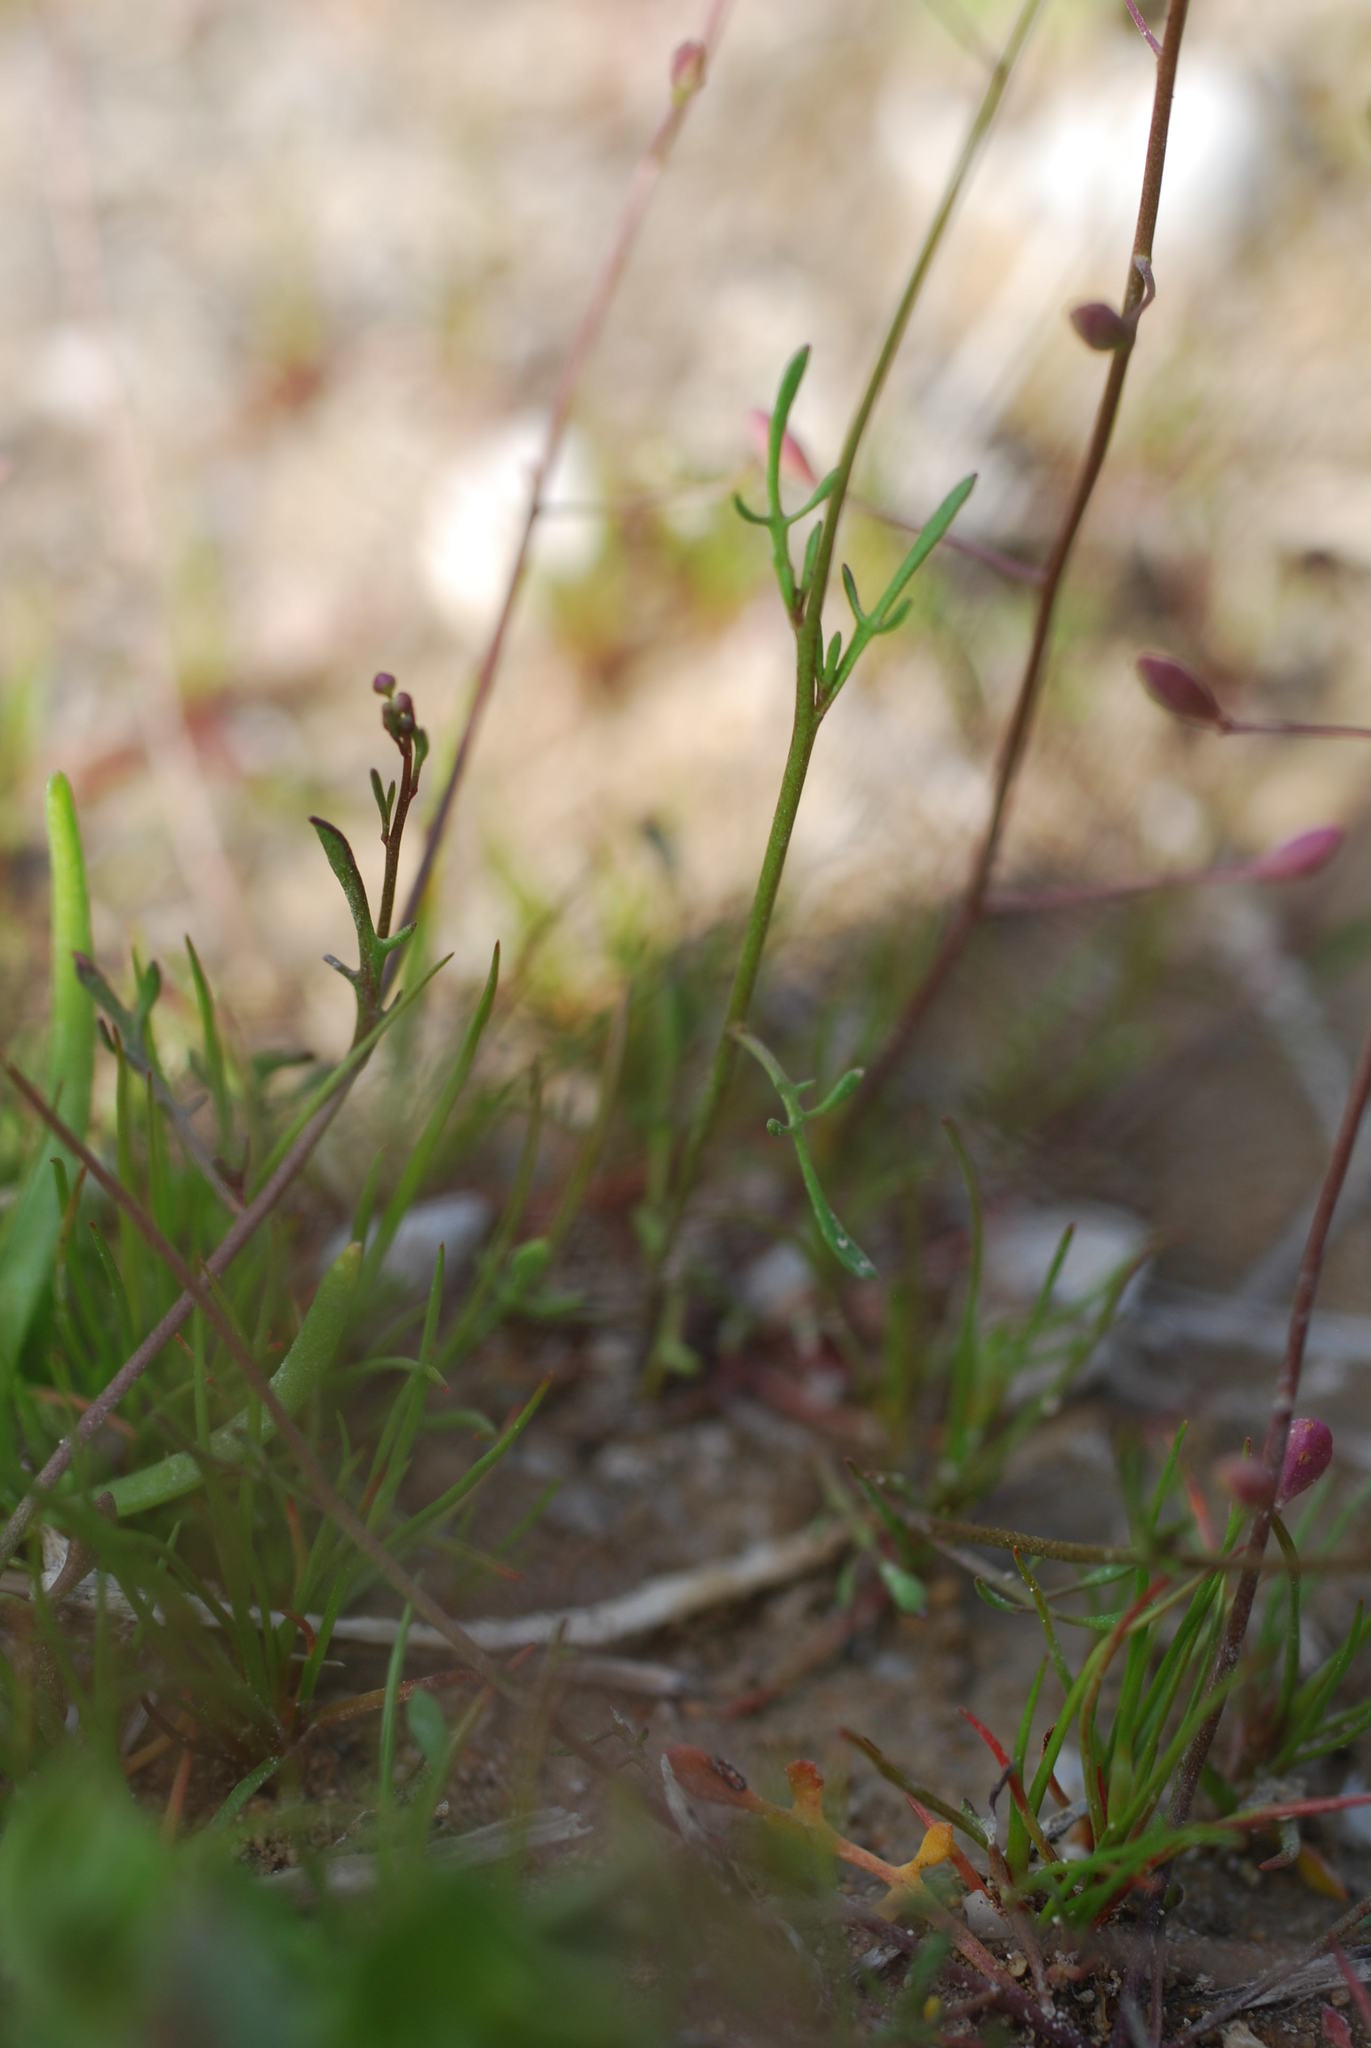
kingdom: Plantae
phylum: Tracheophyta
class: Magnoliopsida
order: Brassicales
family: Brassicaceae
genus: Hornungia
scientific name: Hornungia procumbens
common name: Oval purse
